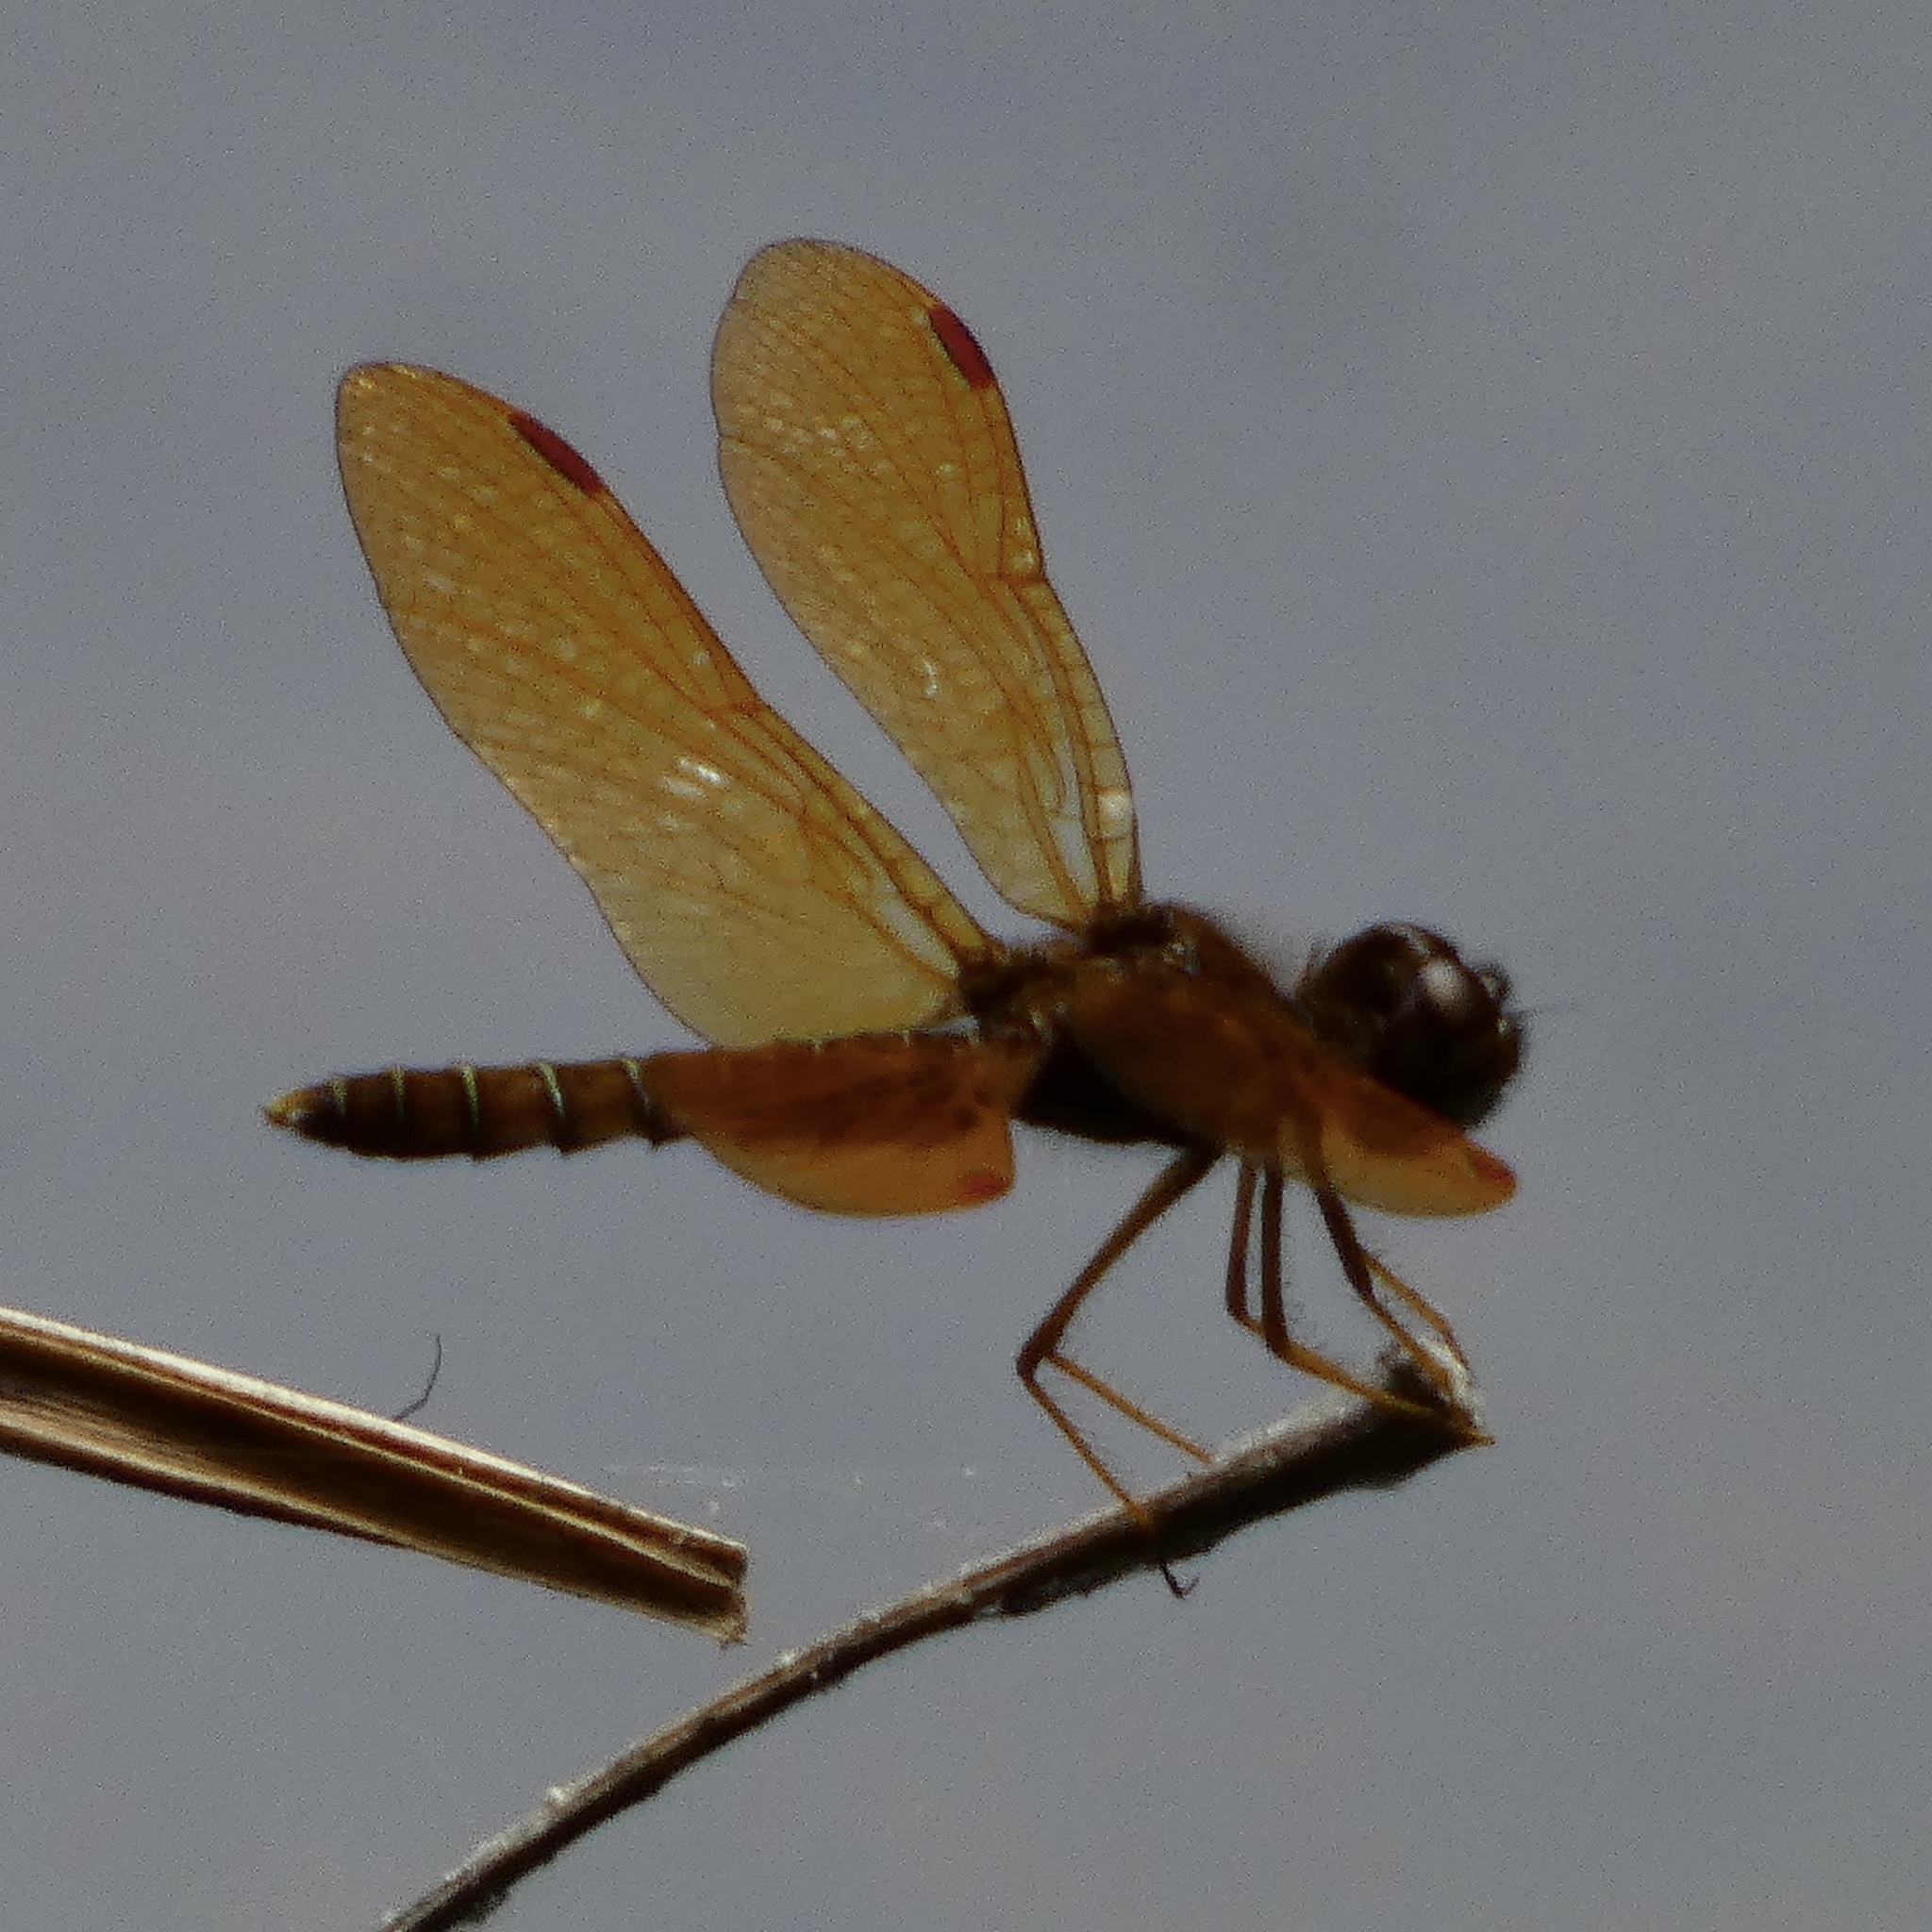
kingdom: Animalia
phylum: Arthropoda
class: Insecta
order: Odonata
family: Libellulidae
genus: Perithemis
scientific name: Perithemis tenera
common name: Eastern amberwing
